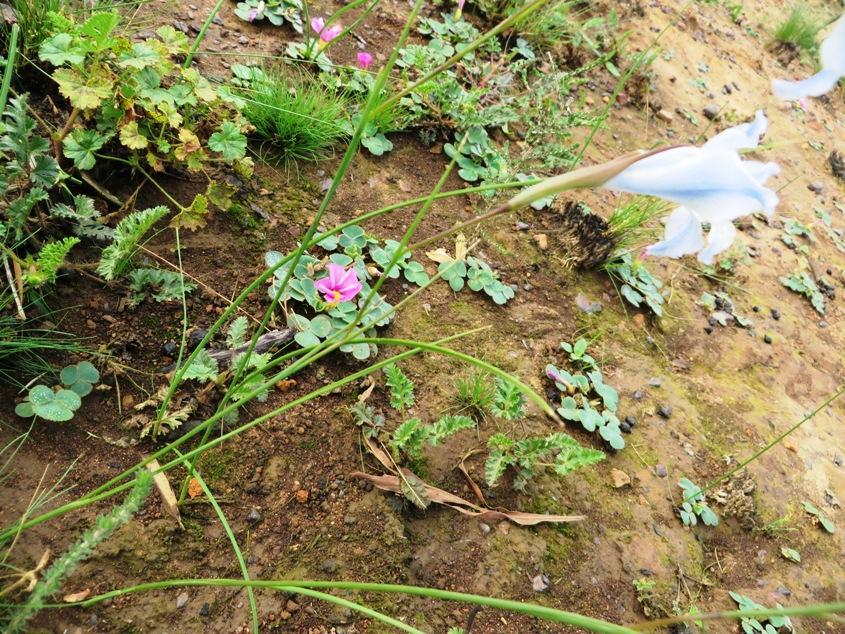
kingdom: Plantae
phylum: Tracheophyta
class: Liliopsida
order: Asparagales
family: Iridaceae
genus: Gladiolus
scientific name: Gladiolus gracilis
